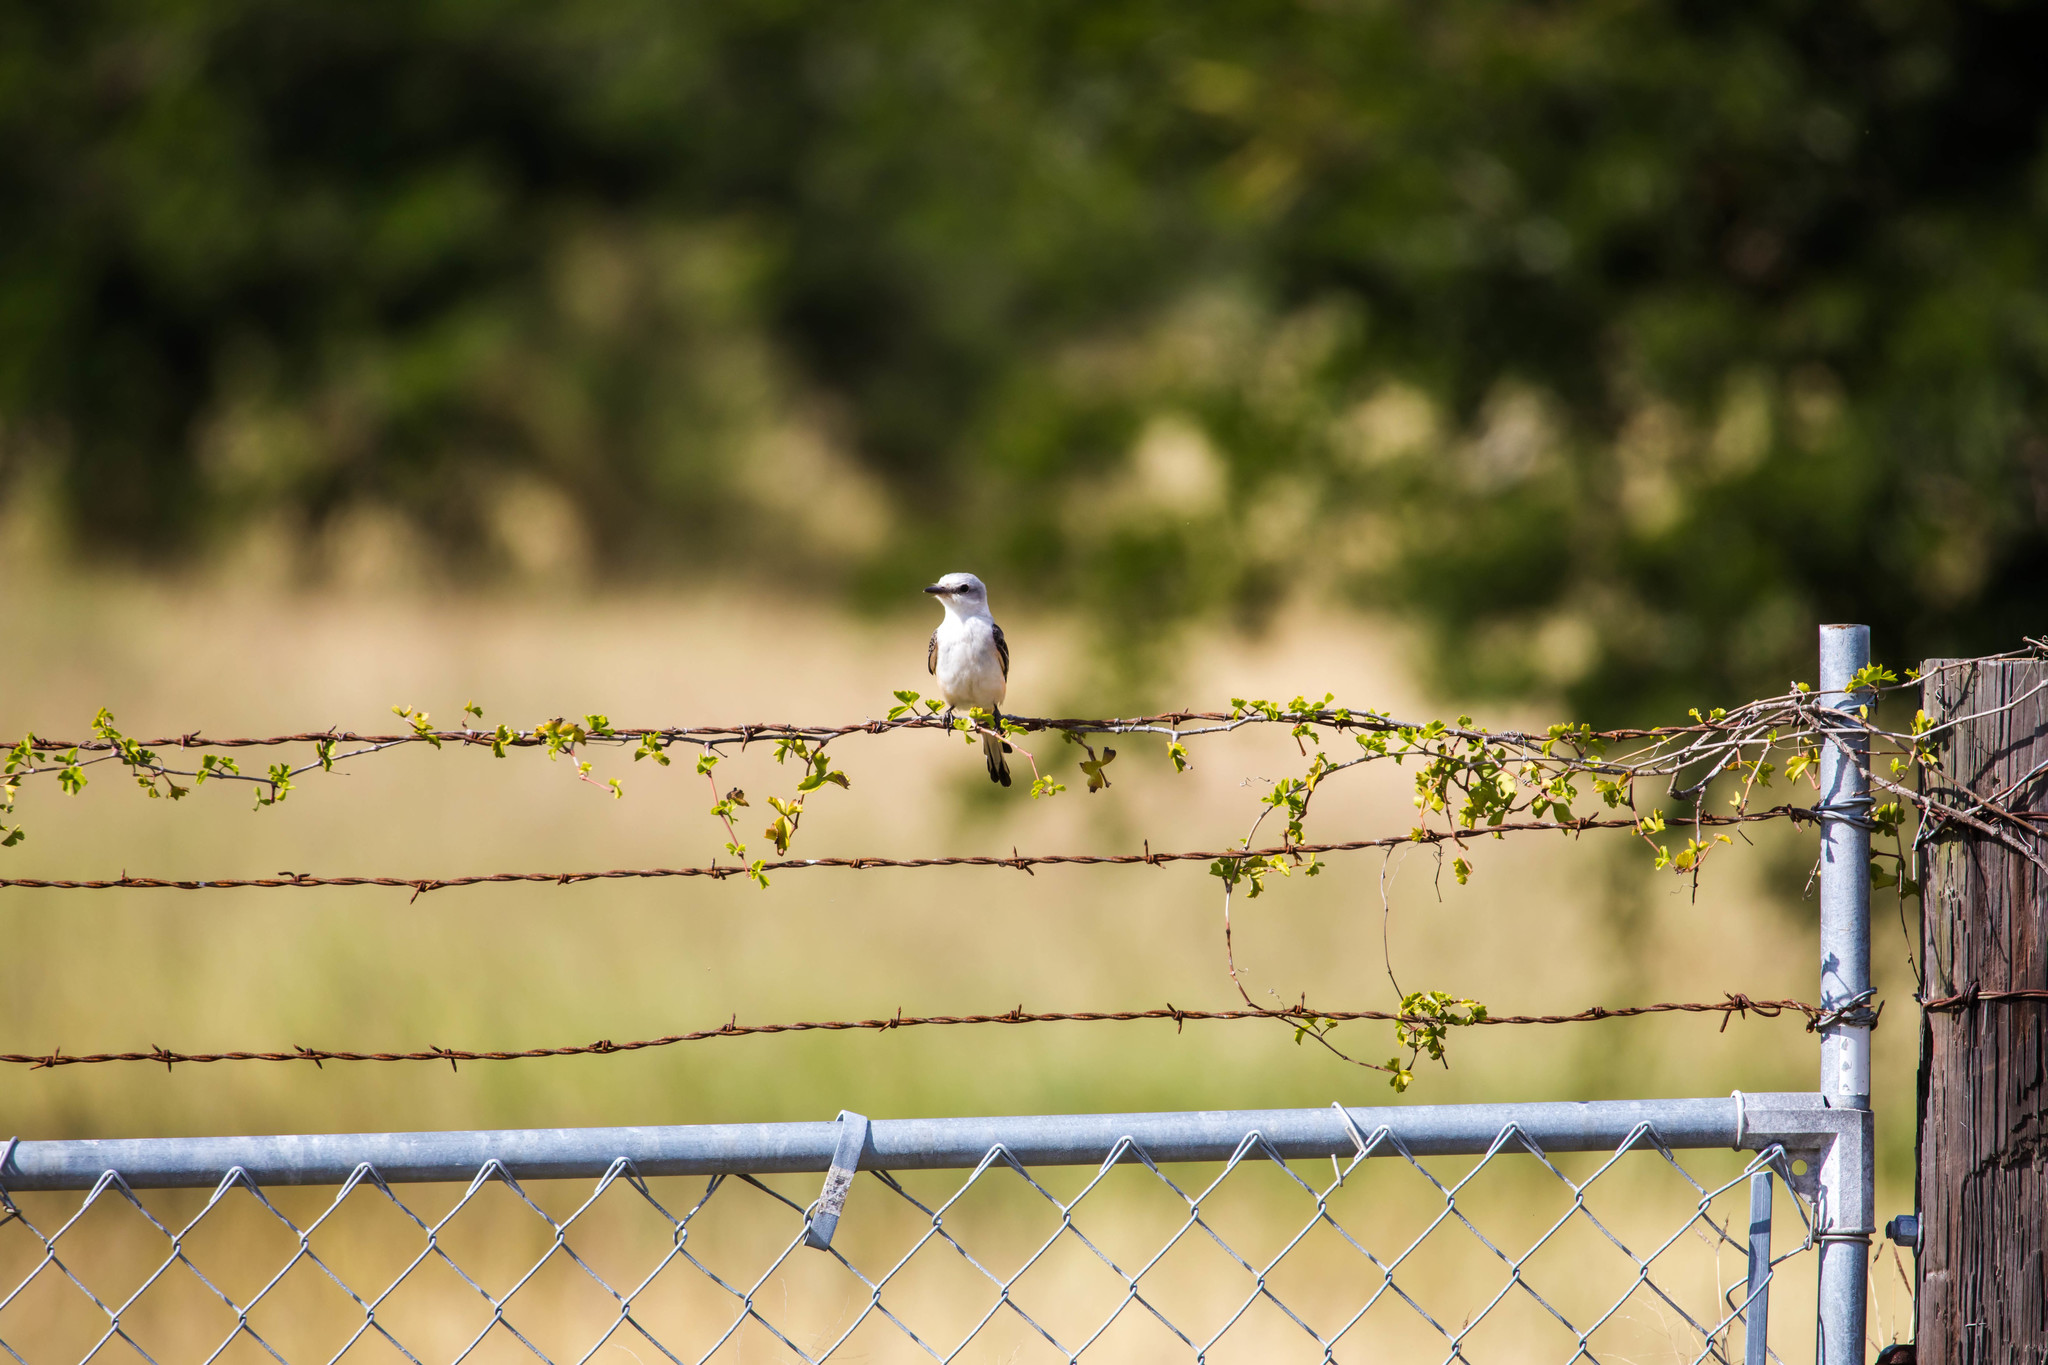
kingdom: Animalia
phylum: Chordata
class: Aves
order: Passeriformes
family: Tyrannidae
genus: Tyrannus
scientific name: Tyrannus forficatus
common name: Scissor-tailed flycatcher
